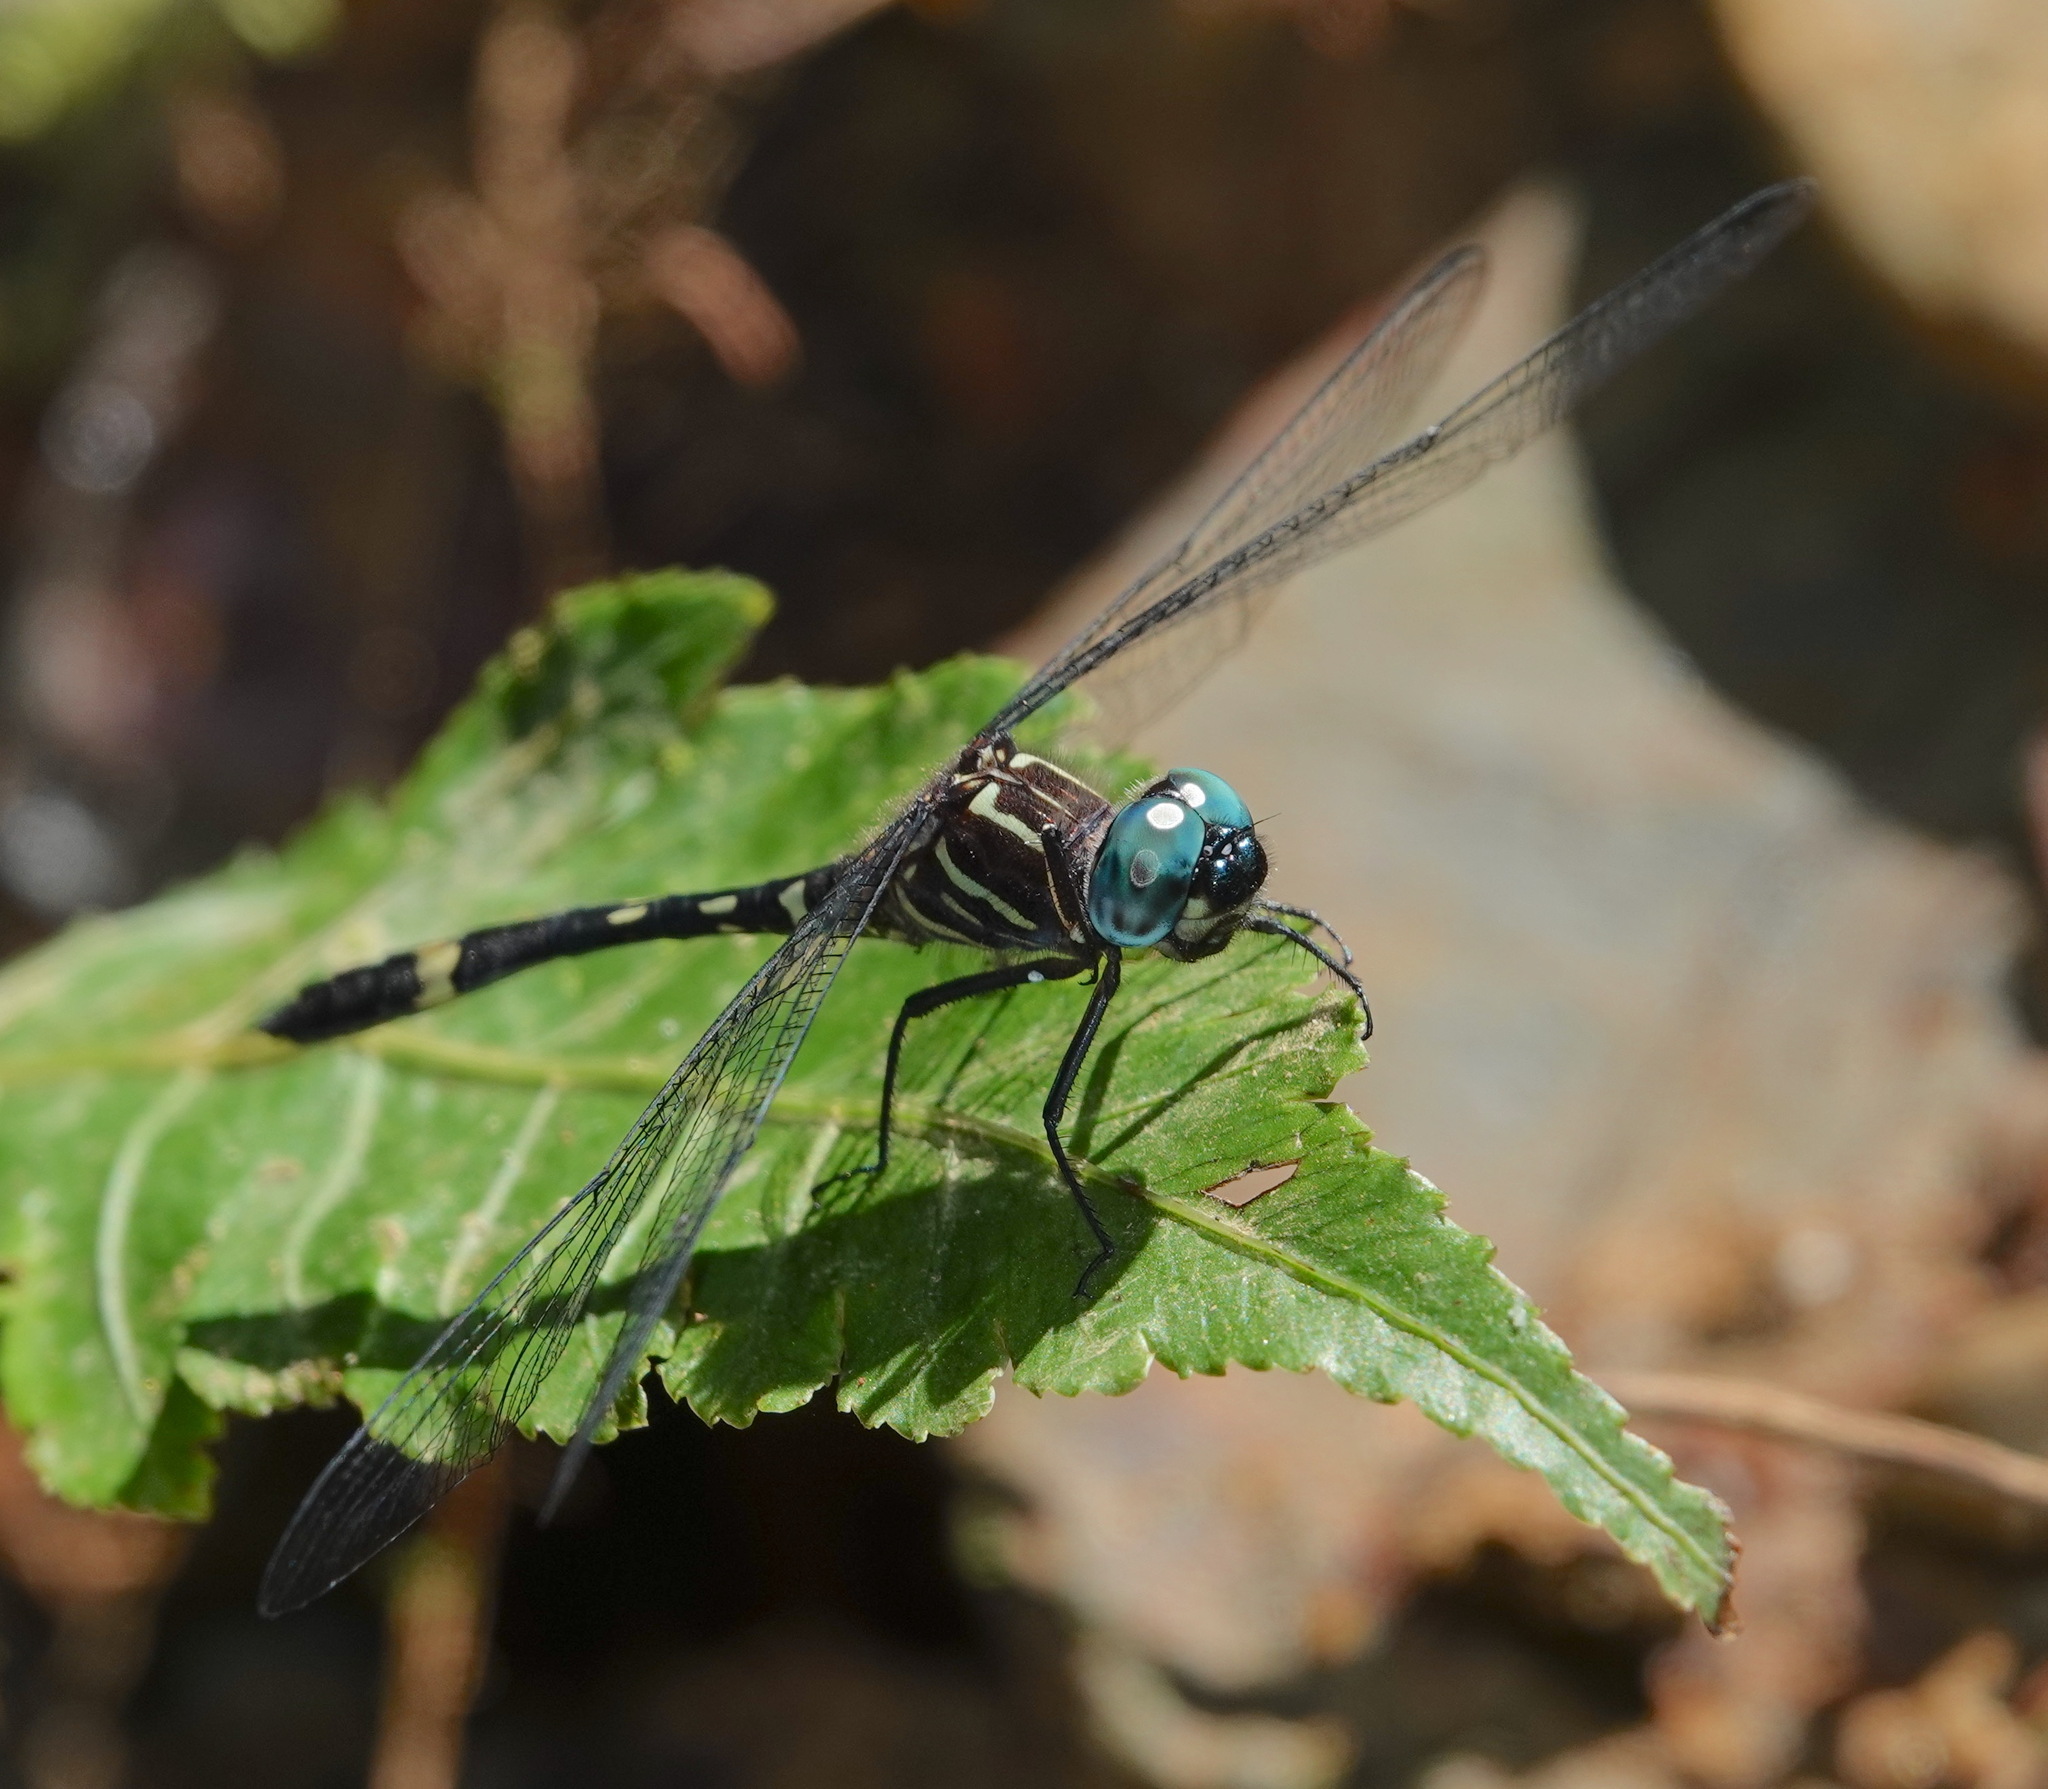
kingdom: Animalia
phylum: Arthropoda
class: Insecta
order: Odonata
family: Libellulidae
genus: Brechmorhoga
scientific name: Brechmorhoga rapax
